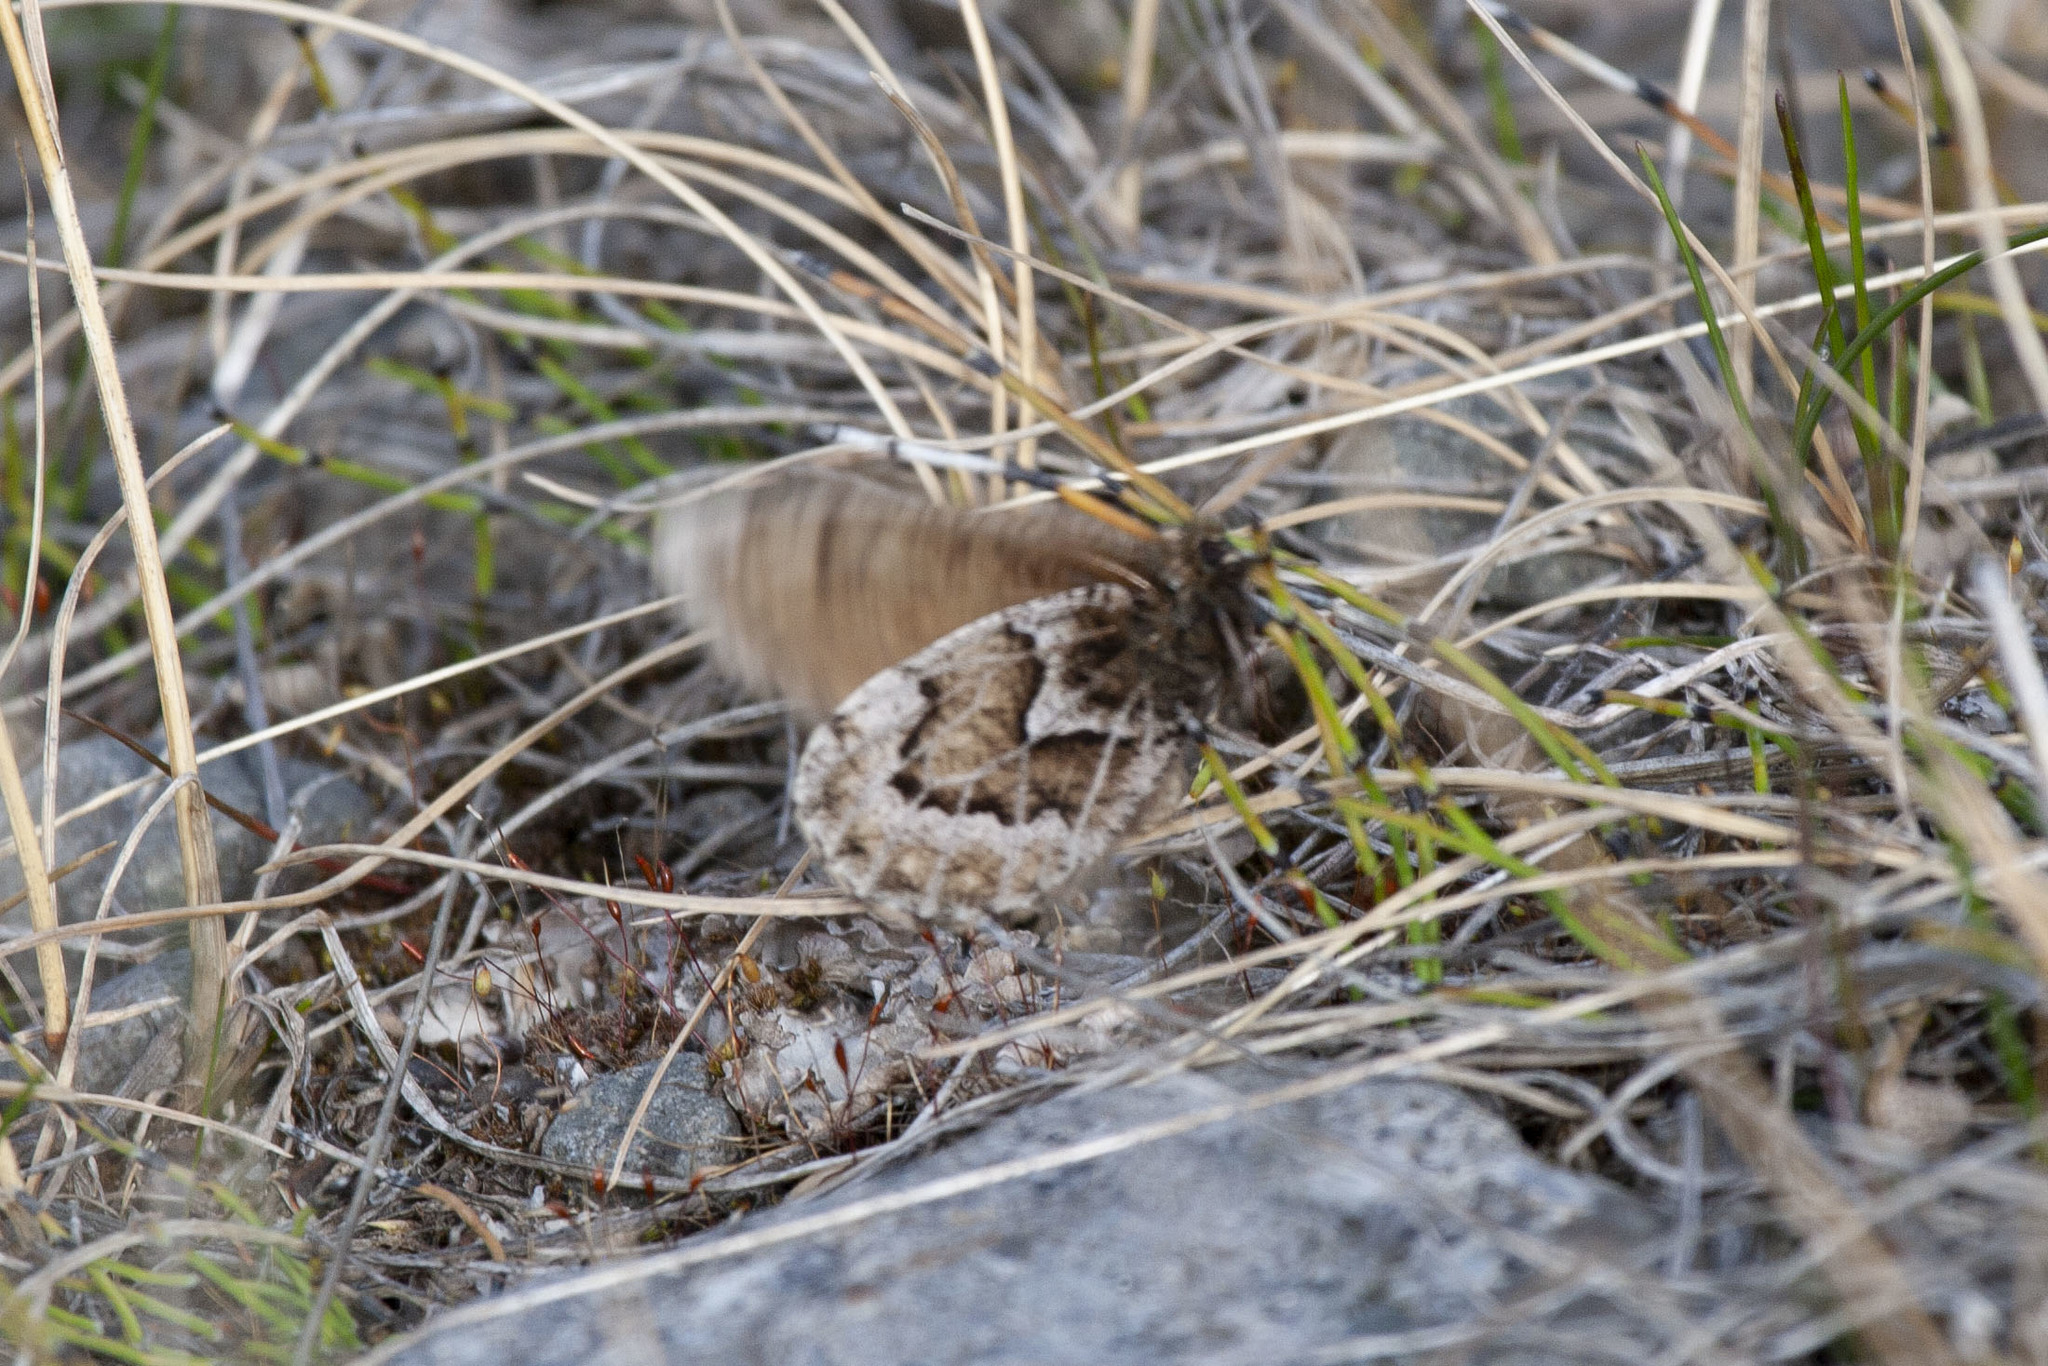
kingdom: Animalia
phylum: Arthropoda
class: Insecta
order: Lepidoptera
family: Nymphalidae
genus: Oeneis
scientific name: Oeneis bore
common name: Arctic grayling
